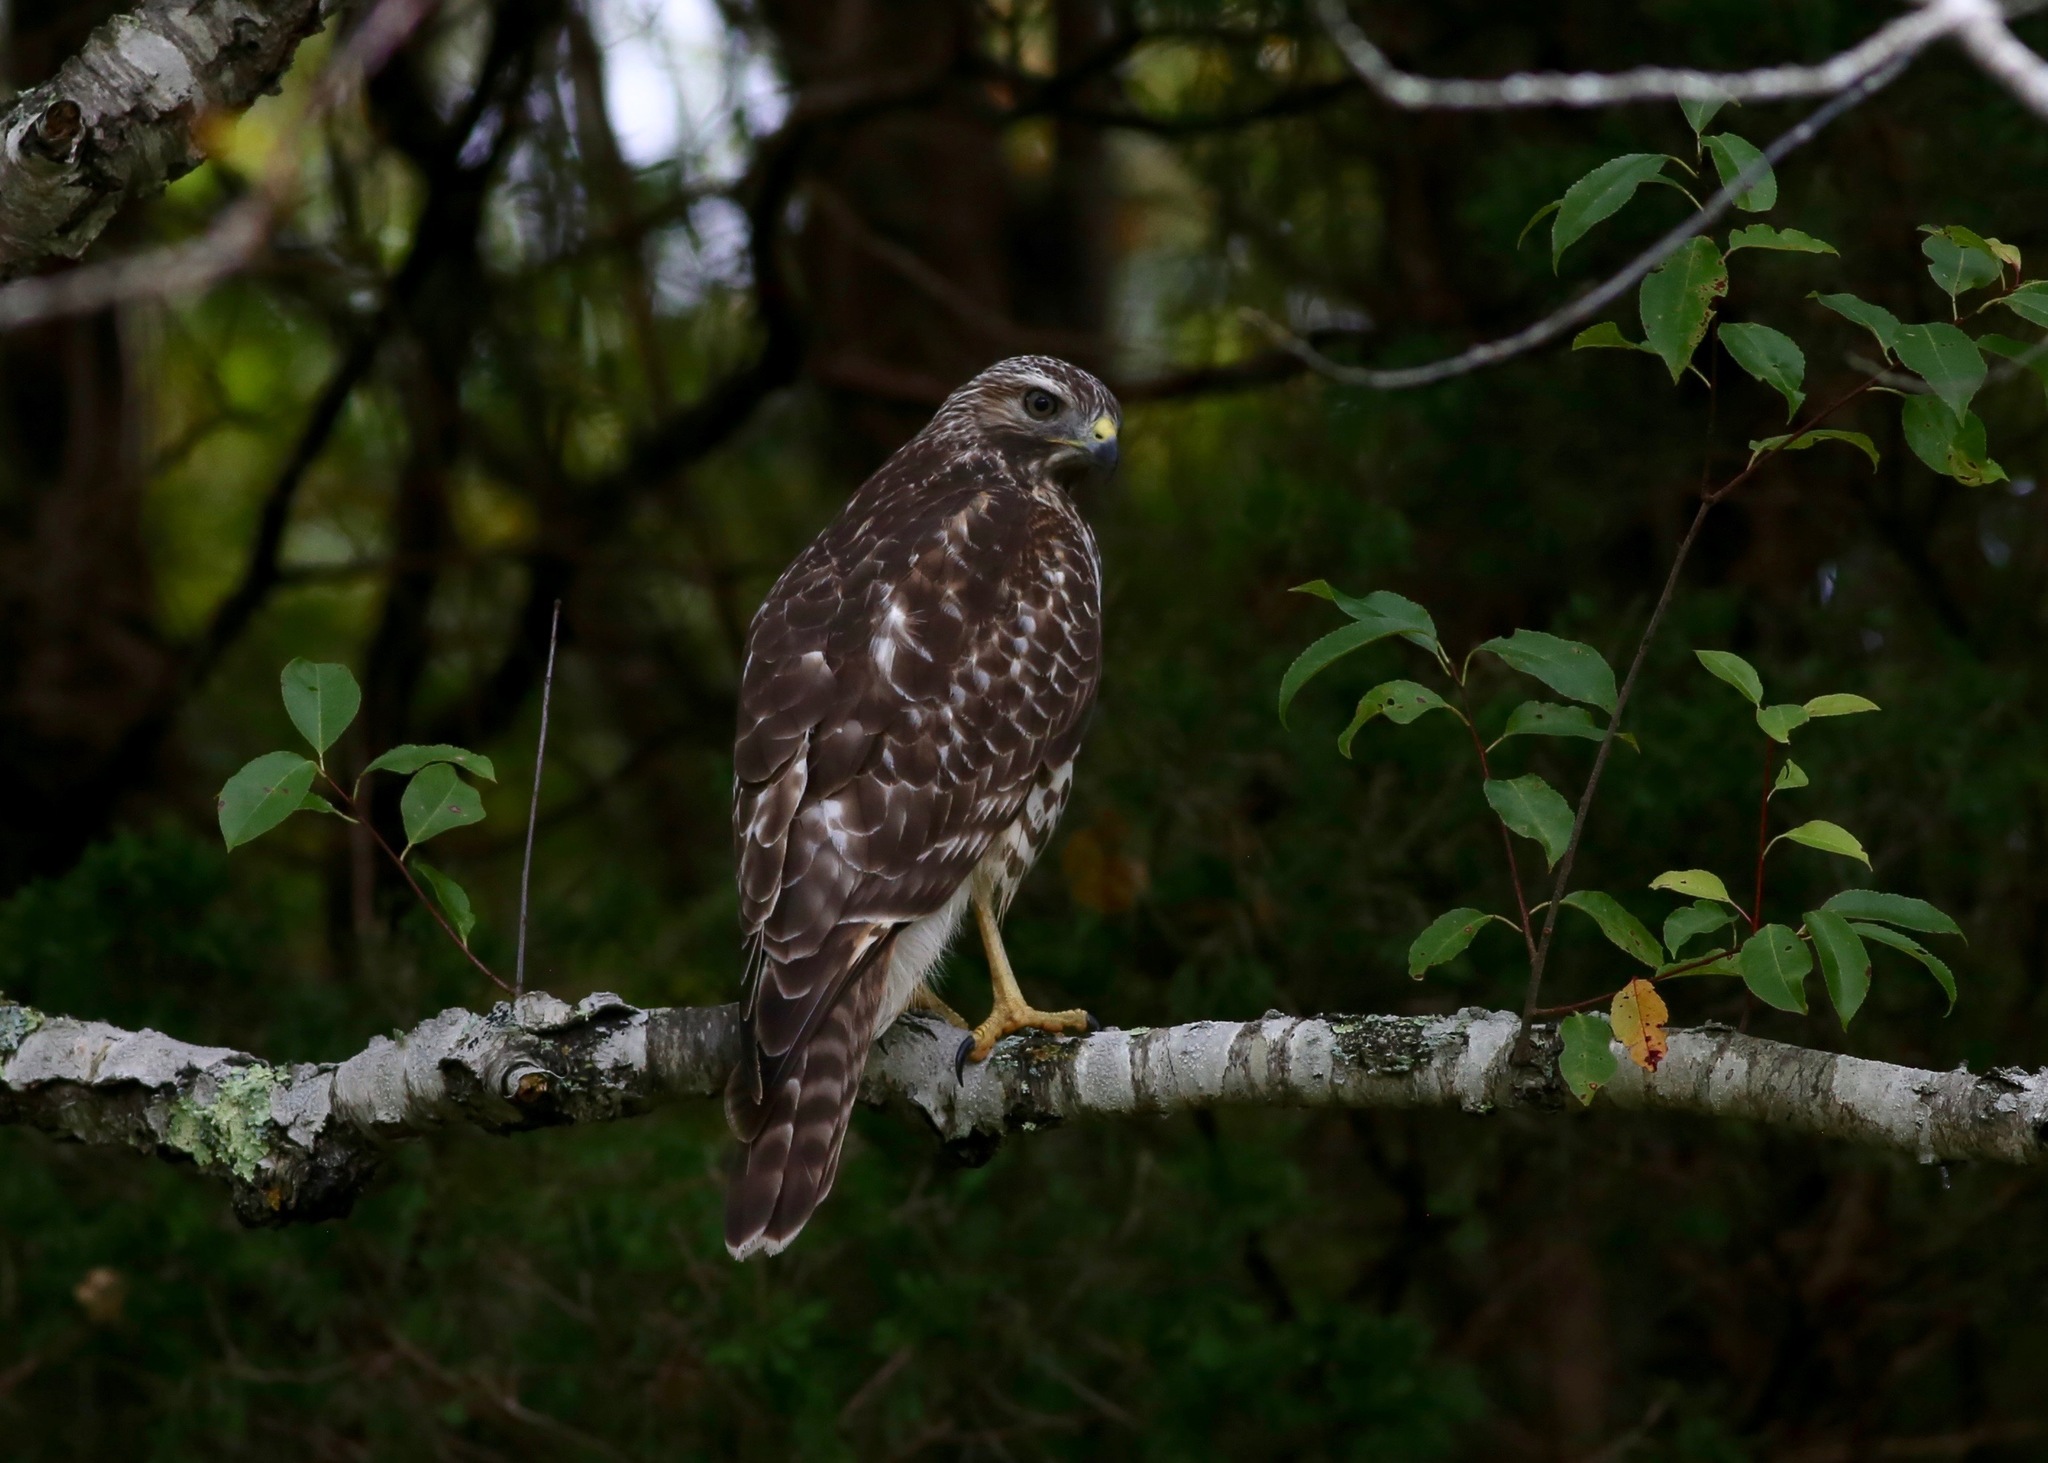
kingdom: Animalia
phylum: Chordata
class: Aves
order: Accipitriformes
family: Accipitridae
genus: Buteo
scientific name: Buteo lineatus
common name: Red-shouldered hawk
